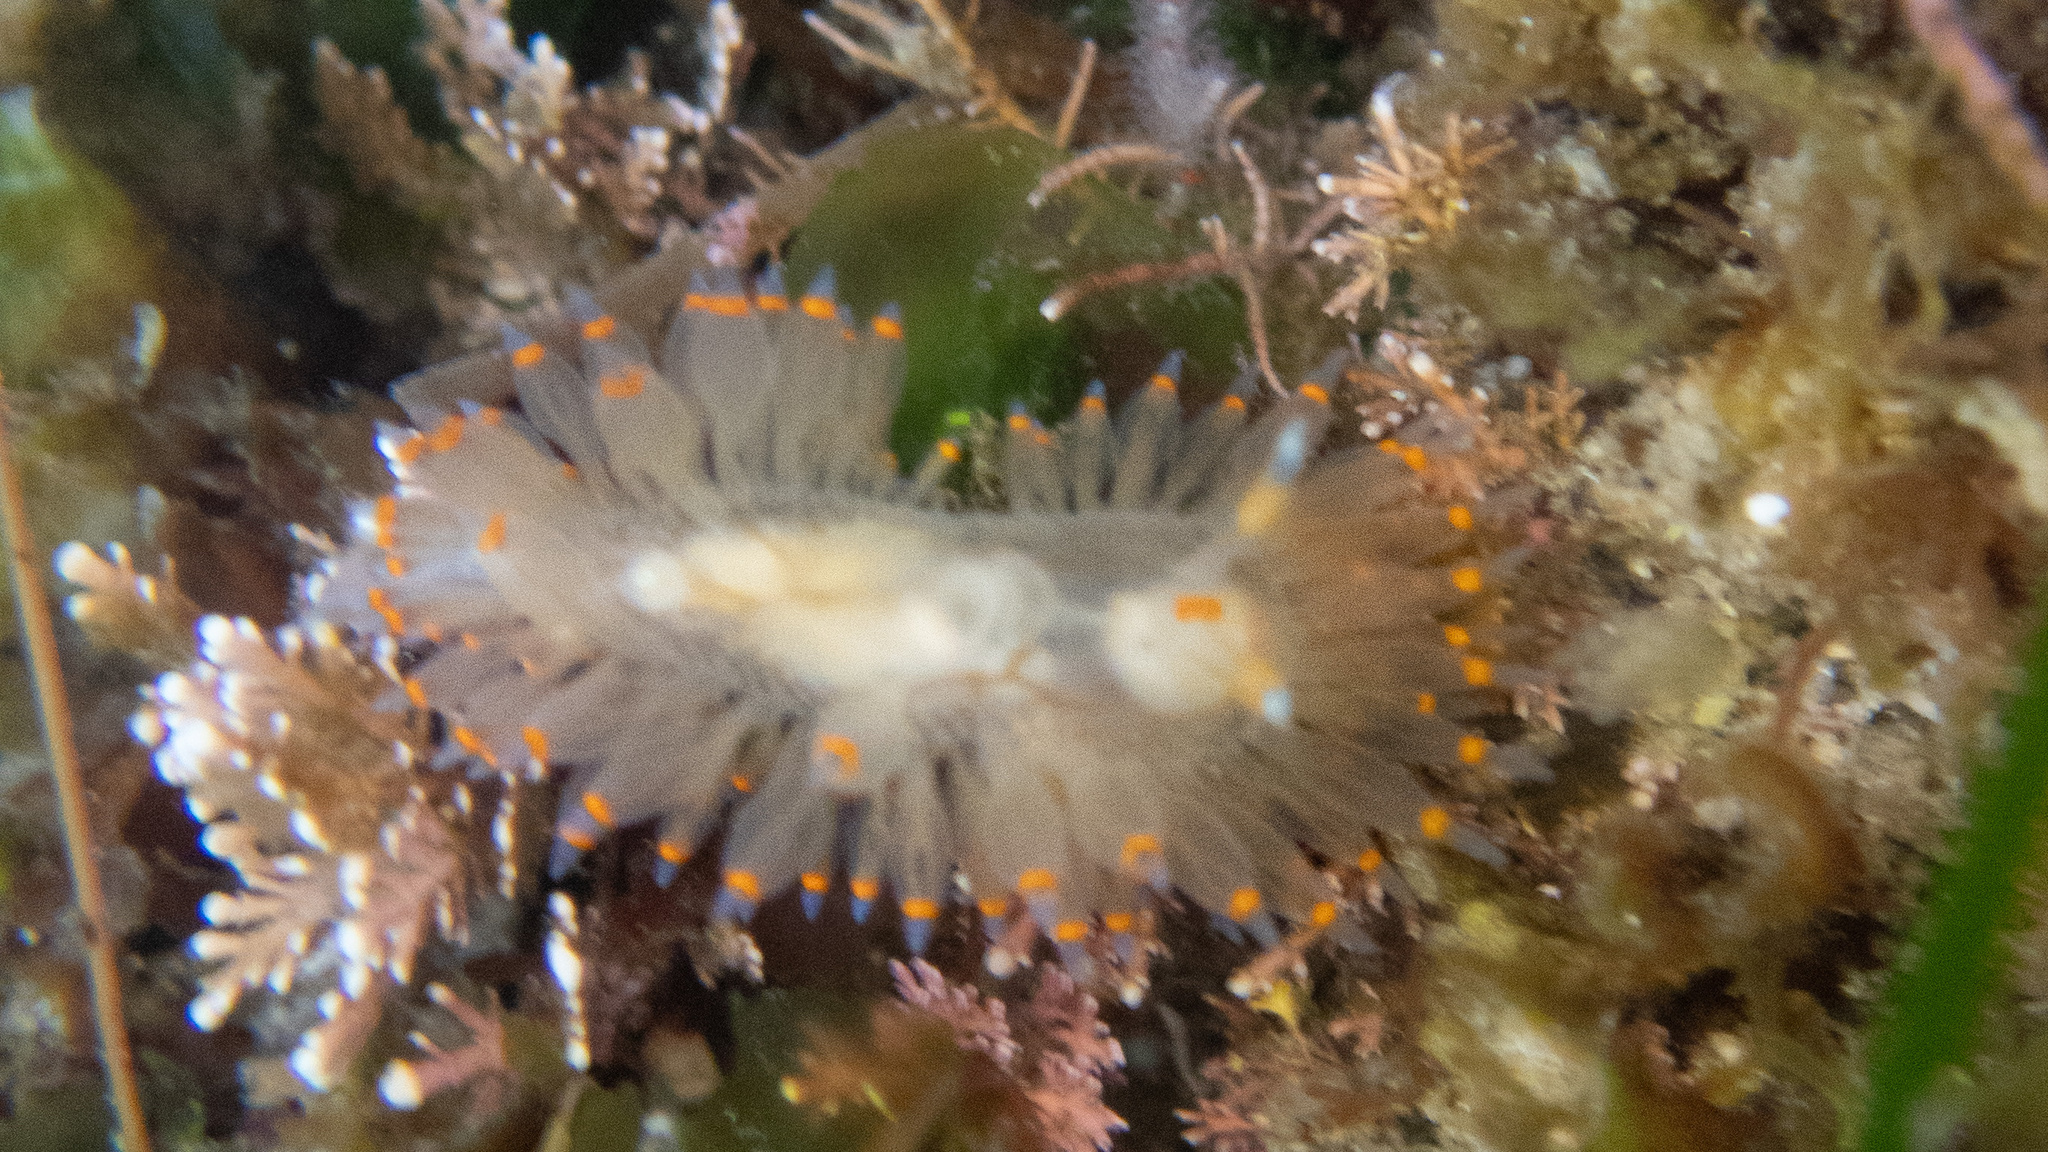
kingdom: Animalia
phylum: Mollusca
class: Gastropoda
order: Nudibranchia
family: Janolidae
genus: Antiopella
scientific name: Antiopella barbarensis
